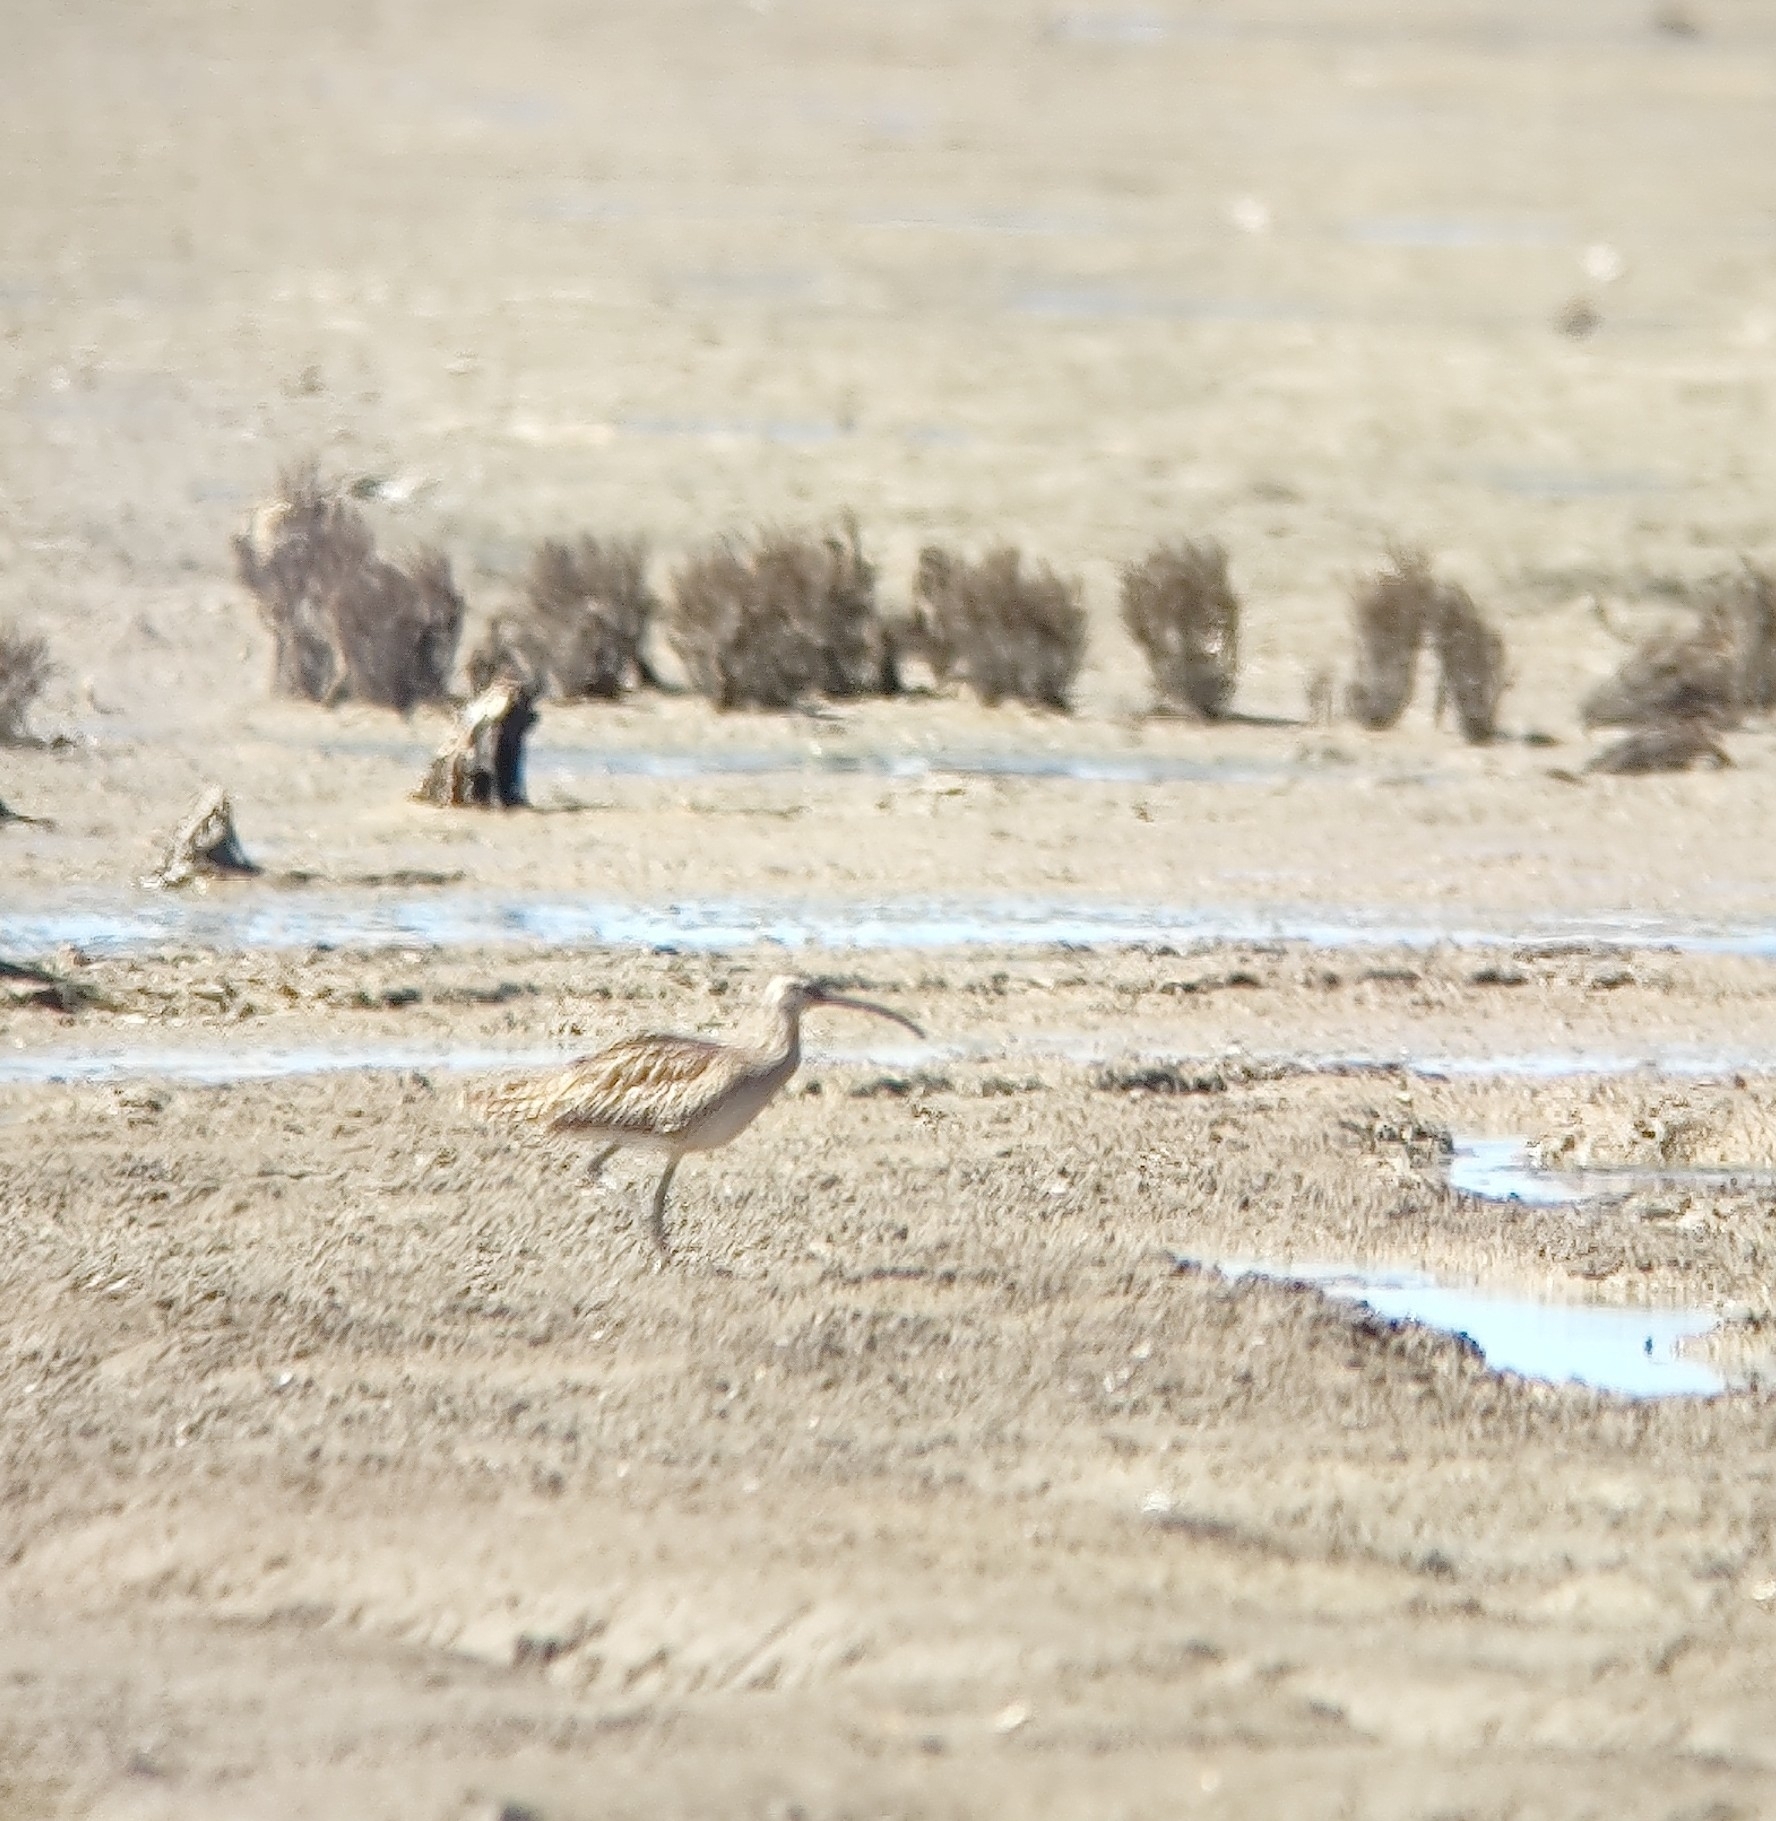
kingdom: Animalia
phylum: Chordata
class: Aves
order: Charadriiformes
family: Scolopacidae
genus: Numenius
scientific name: Numenius americanus
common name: Long-billed curlew
